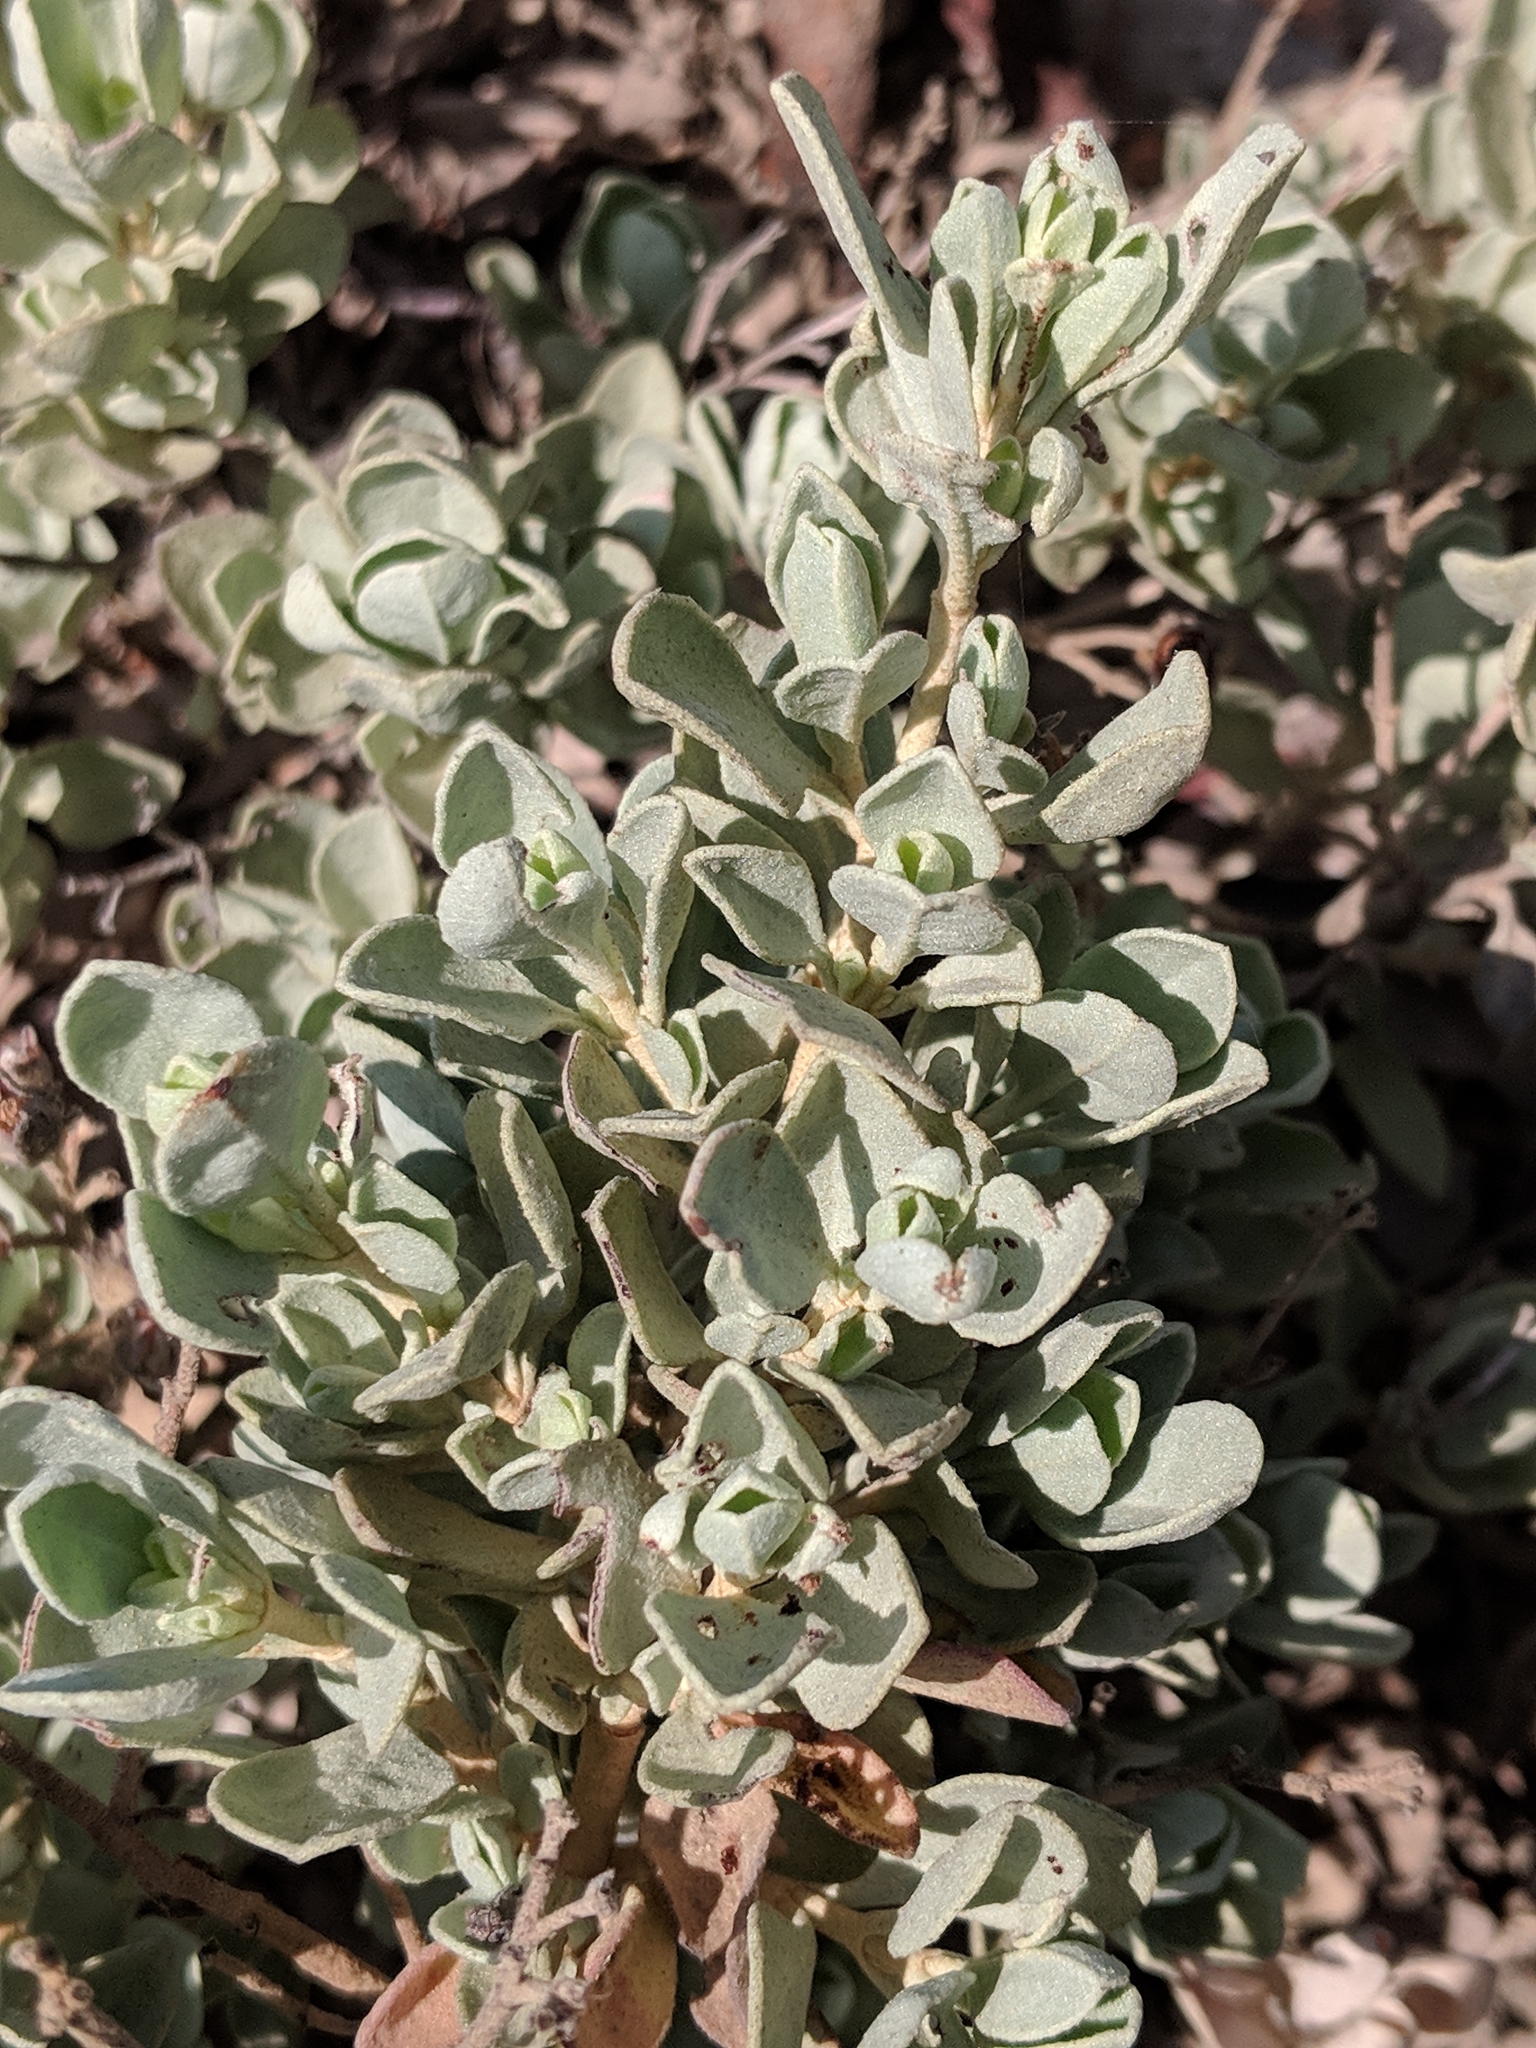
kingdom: Plantae
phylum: Tracheophyta
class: Magnoliopsida
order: Malvales
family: Cistaceae
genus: Halimium
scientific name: Halimium halimifolium
